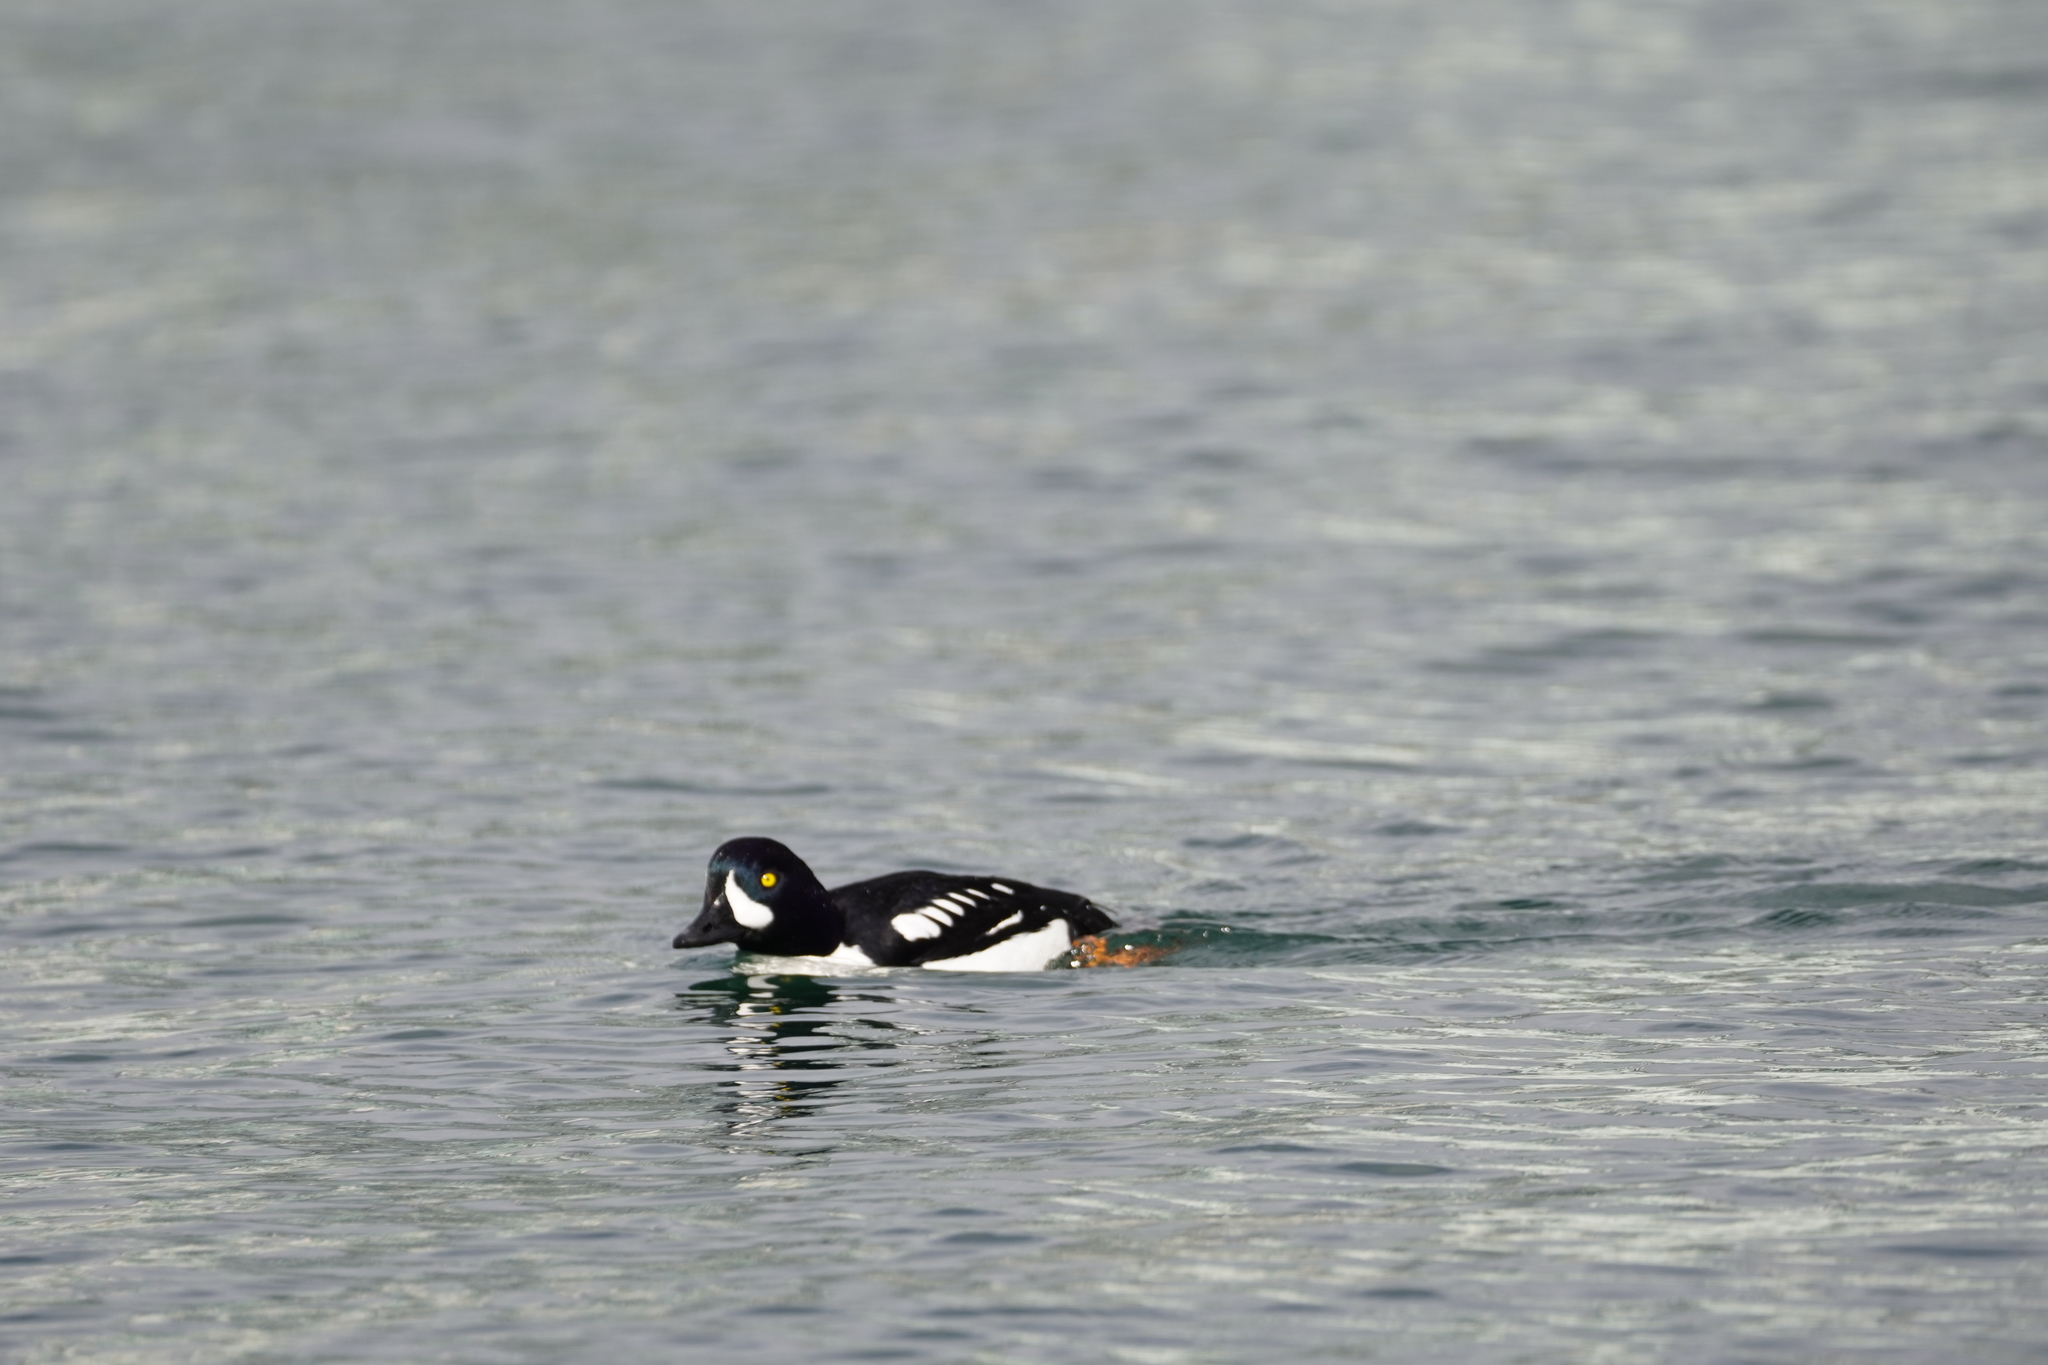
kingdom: Animalia
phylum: Chordata
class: Aves
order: Anseriformes
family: Anatidae
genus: Bucephala
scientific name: Bucephala islandica
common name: Barrow's goldeneye
